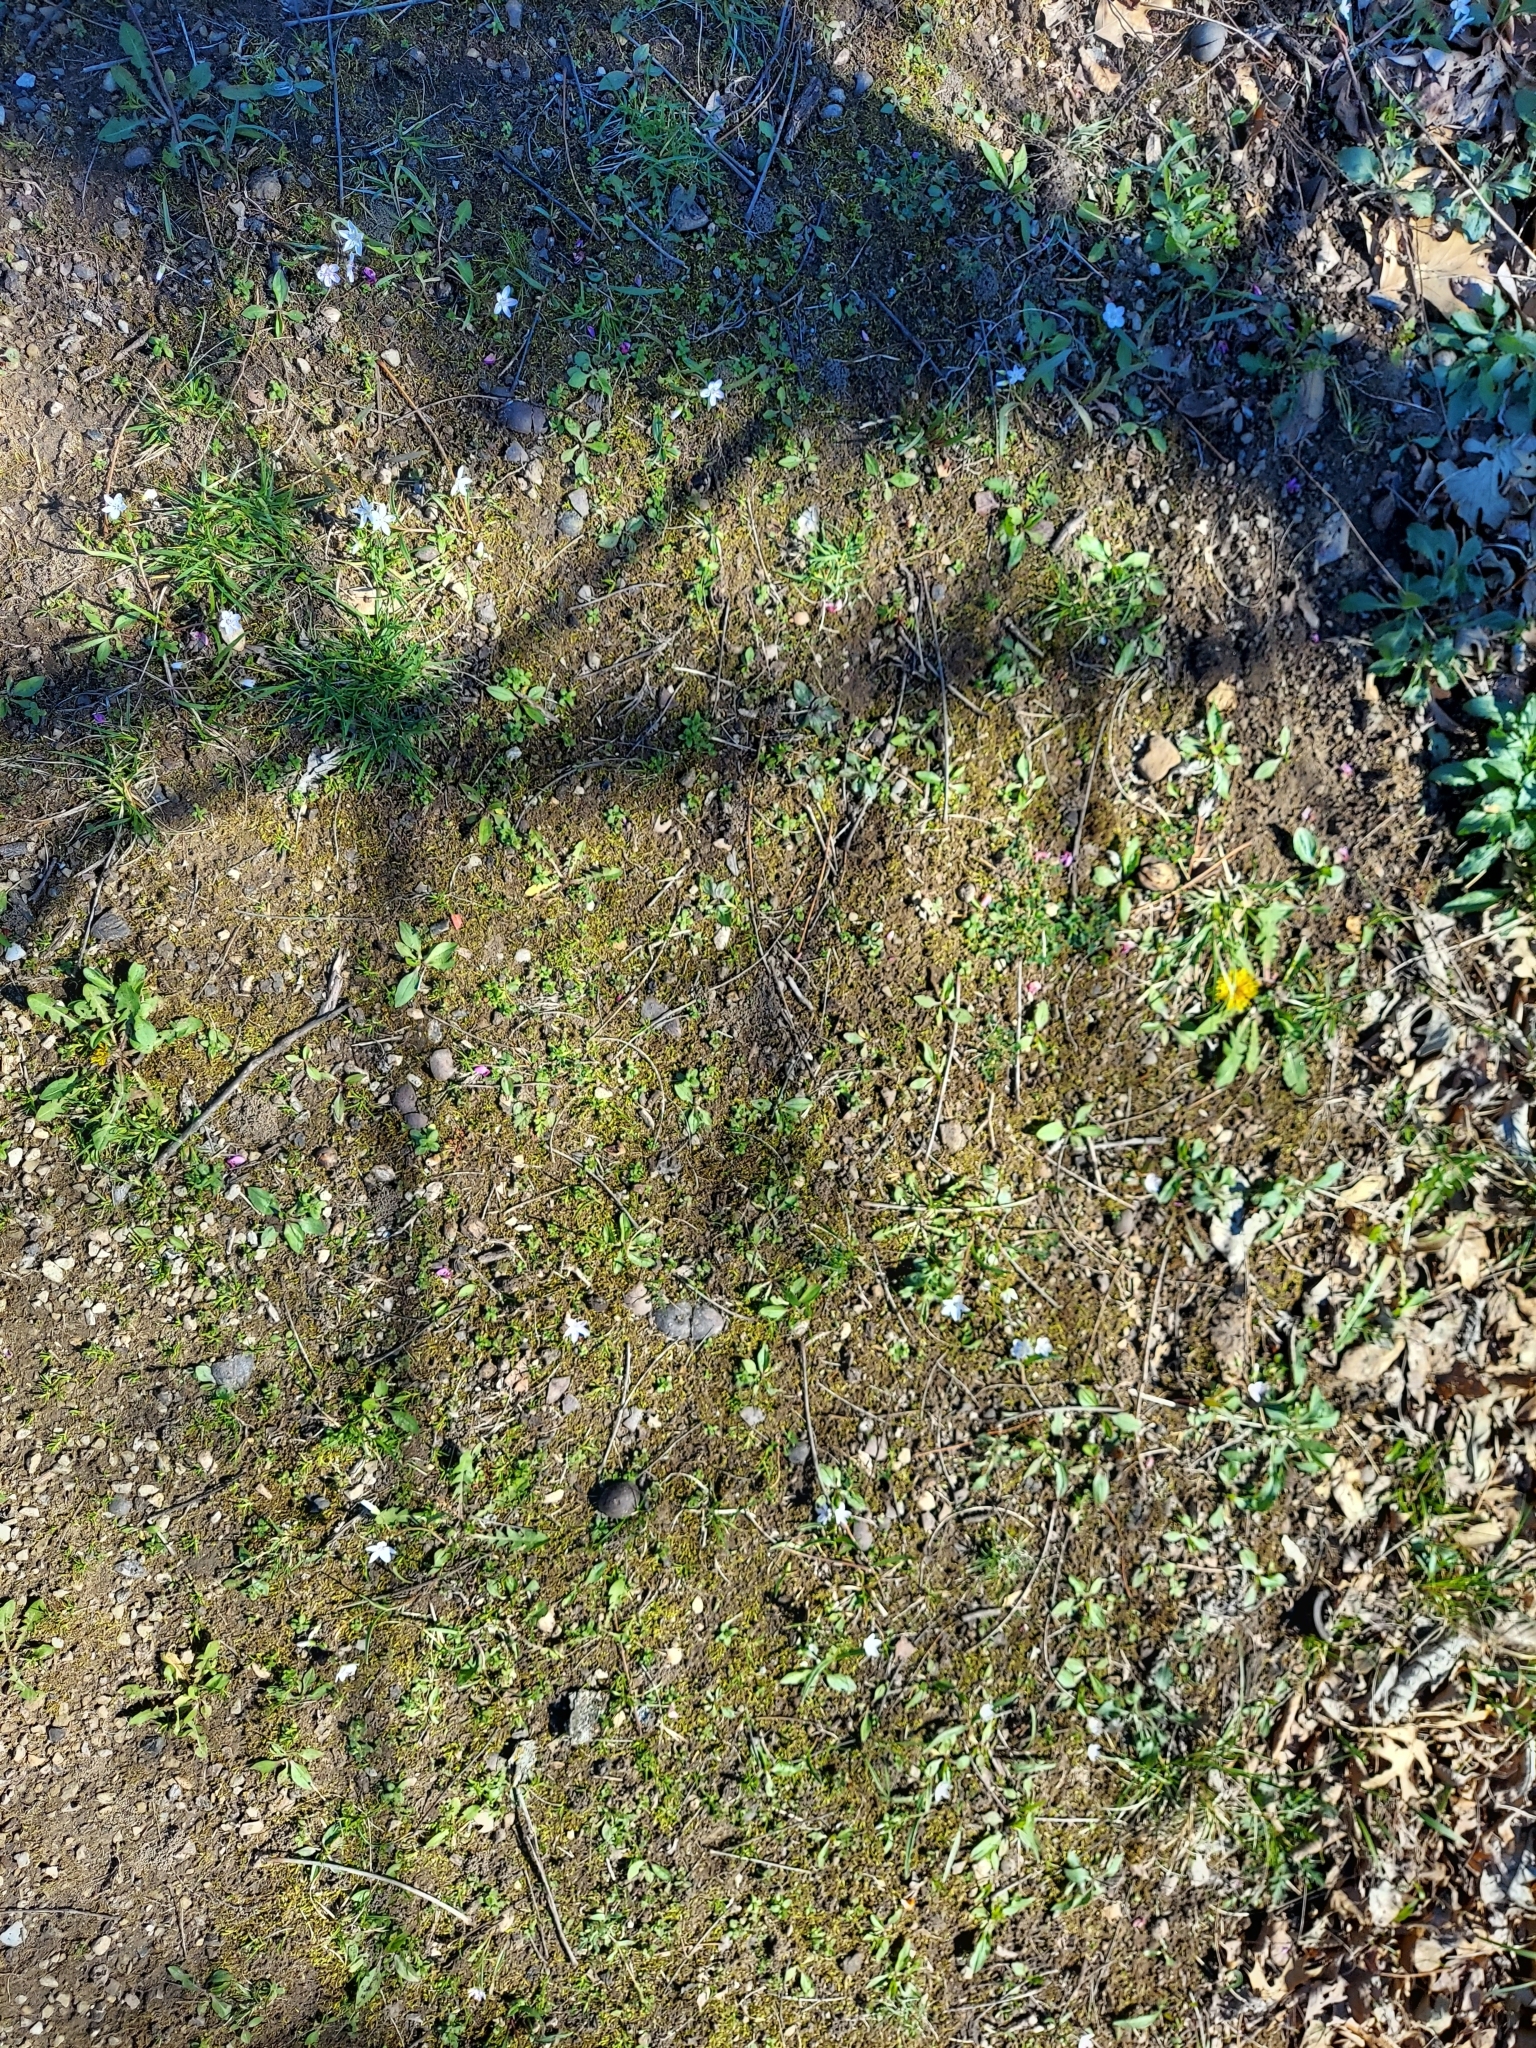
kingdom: Plantae
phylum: Tracheophyta
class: Magnoliopsida
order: Caryophyllales
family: Montiaceae
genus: Claytonia
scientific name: Claytonia virginica
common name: Virginia springbeauty
